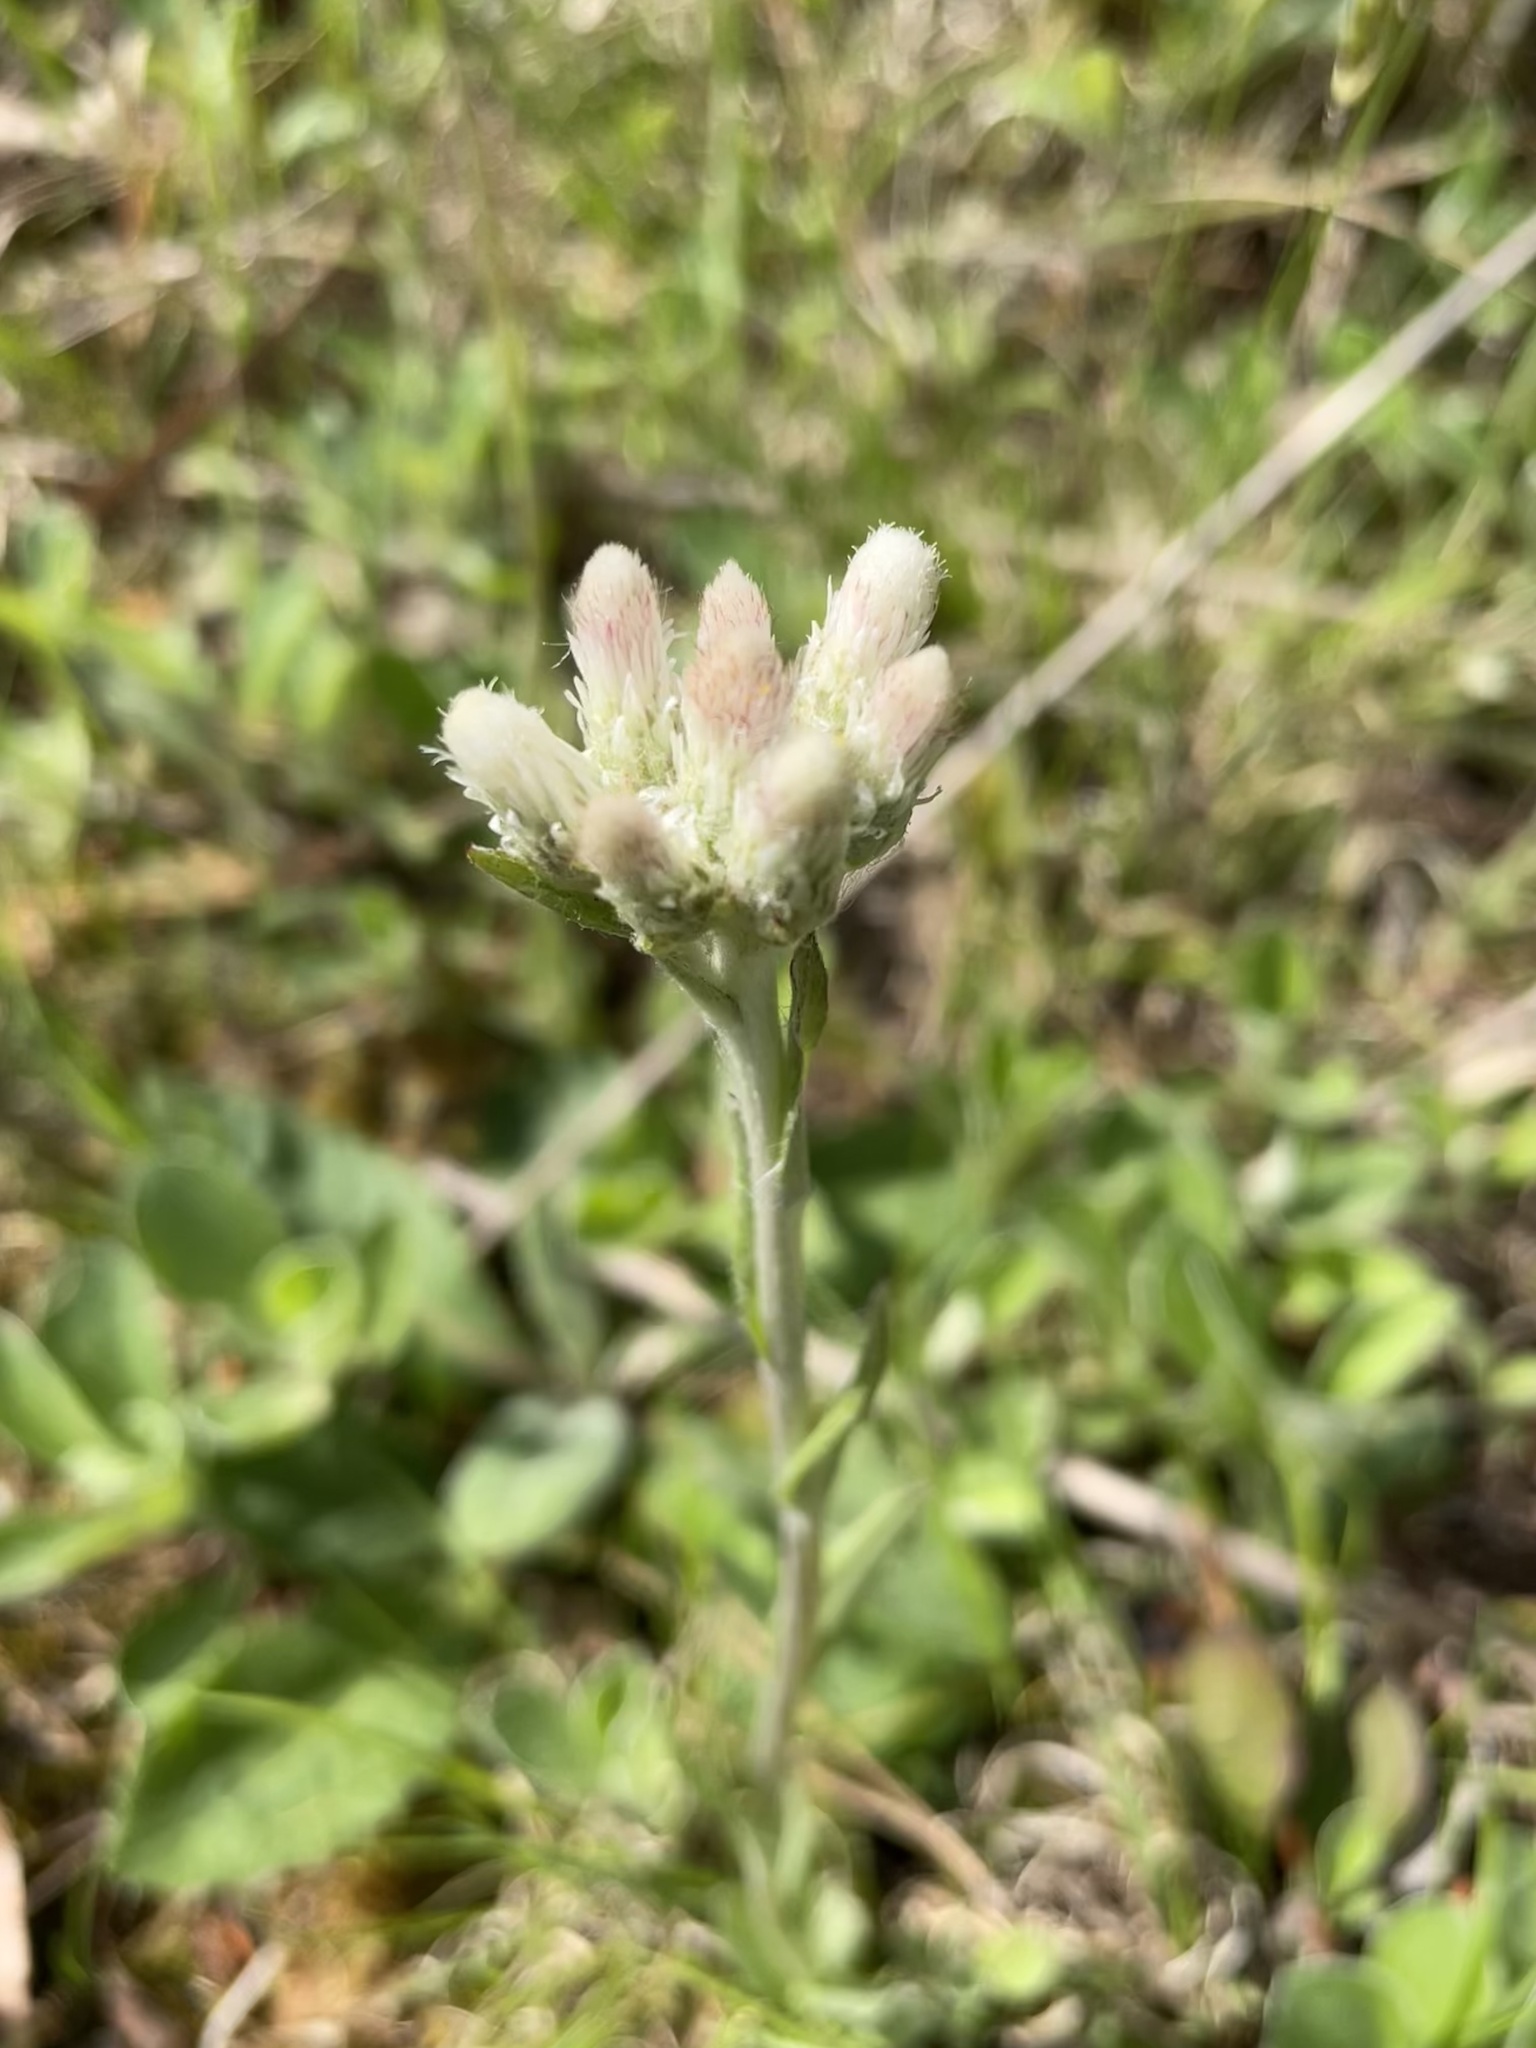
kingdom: Plantae
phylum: Tracheophyta
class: Magnoliopsida
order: Asterales
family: Asteraceae
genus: Antennaria
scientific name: Antennaria parlinii
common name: Parlin's pussytoes
